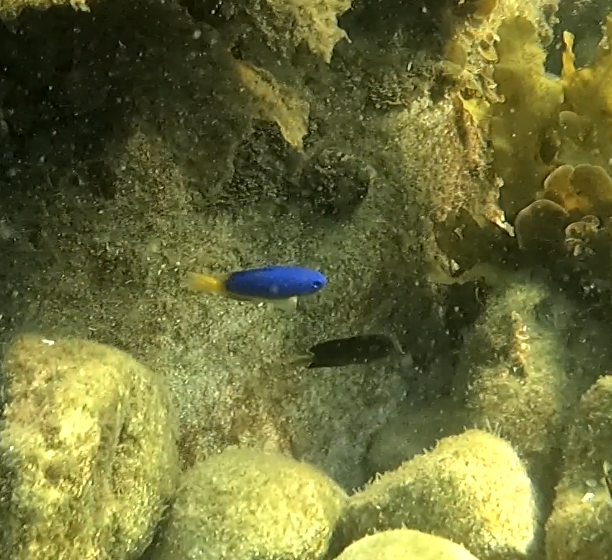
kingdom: Animalia
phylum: Chordata
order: Perciformes
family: Pomacentridae
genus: Pomacentrus
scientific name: Pomacentrus coelestis
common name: Neon damsel
